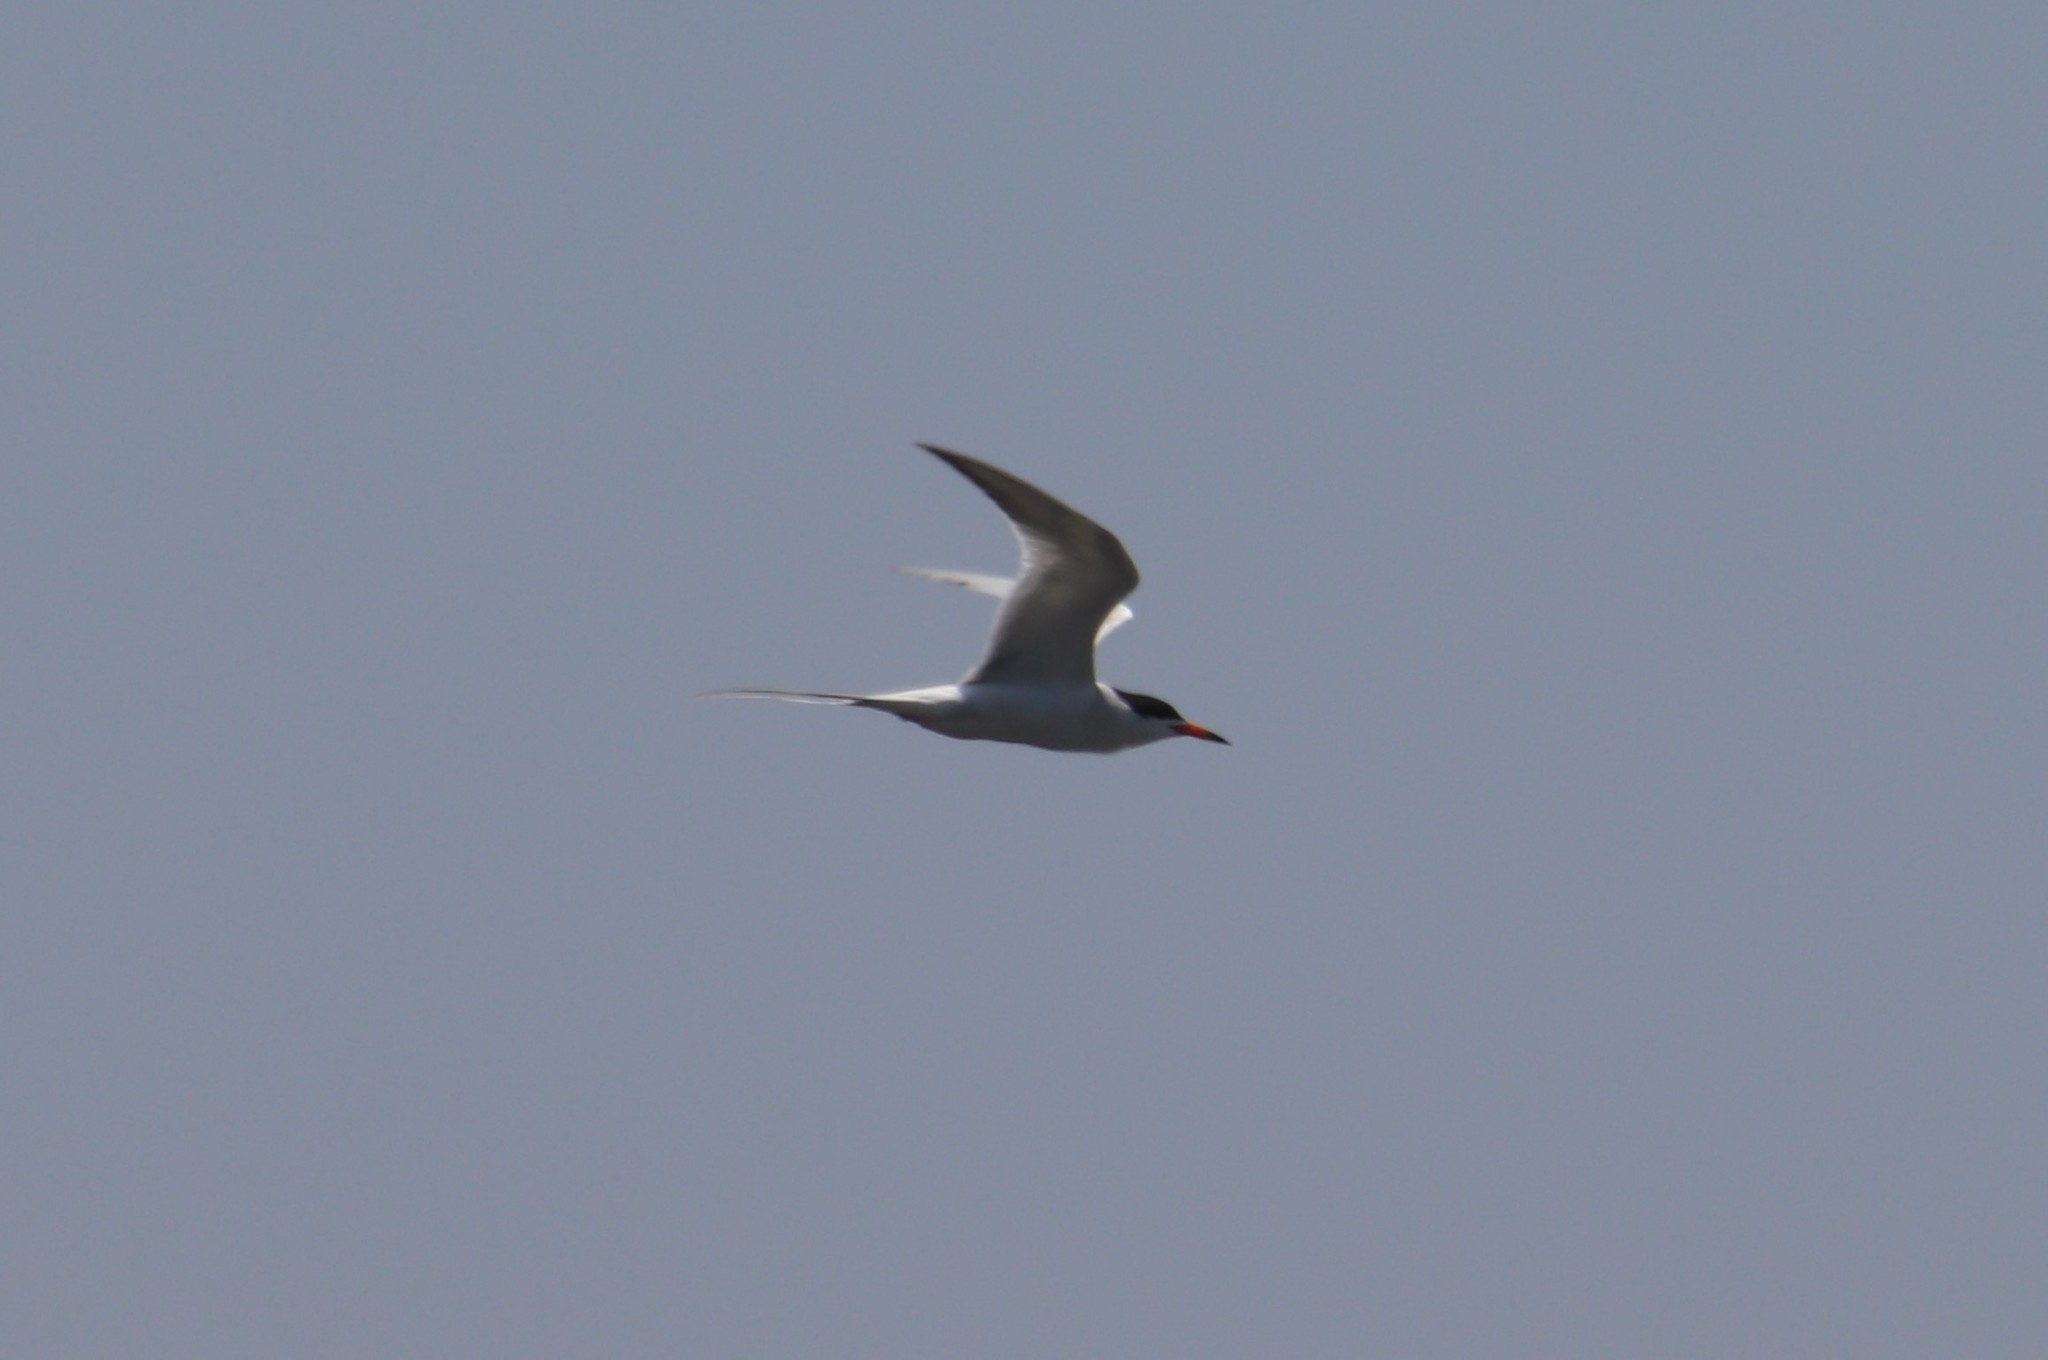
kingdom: Animalia
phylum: Chordata
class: Aves
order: Charadriiformes
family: Laridae
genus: Sterna
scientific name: Sterna forsteri
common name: Forster's tern
